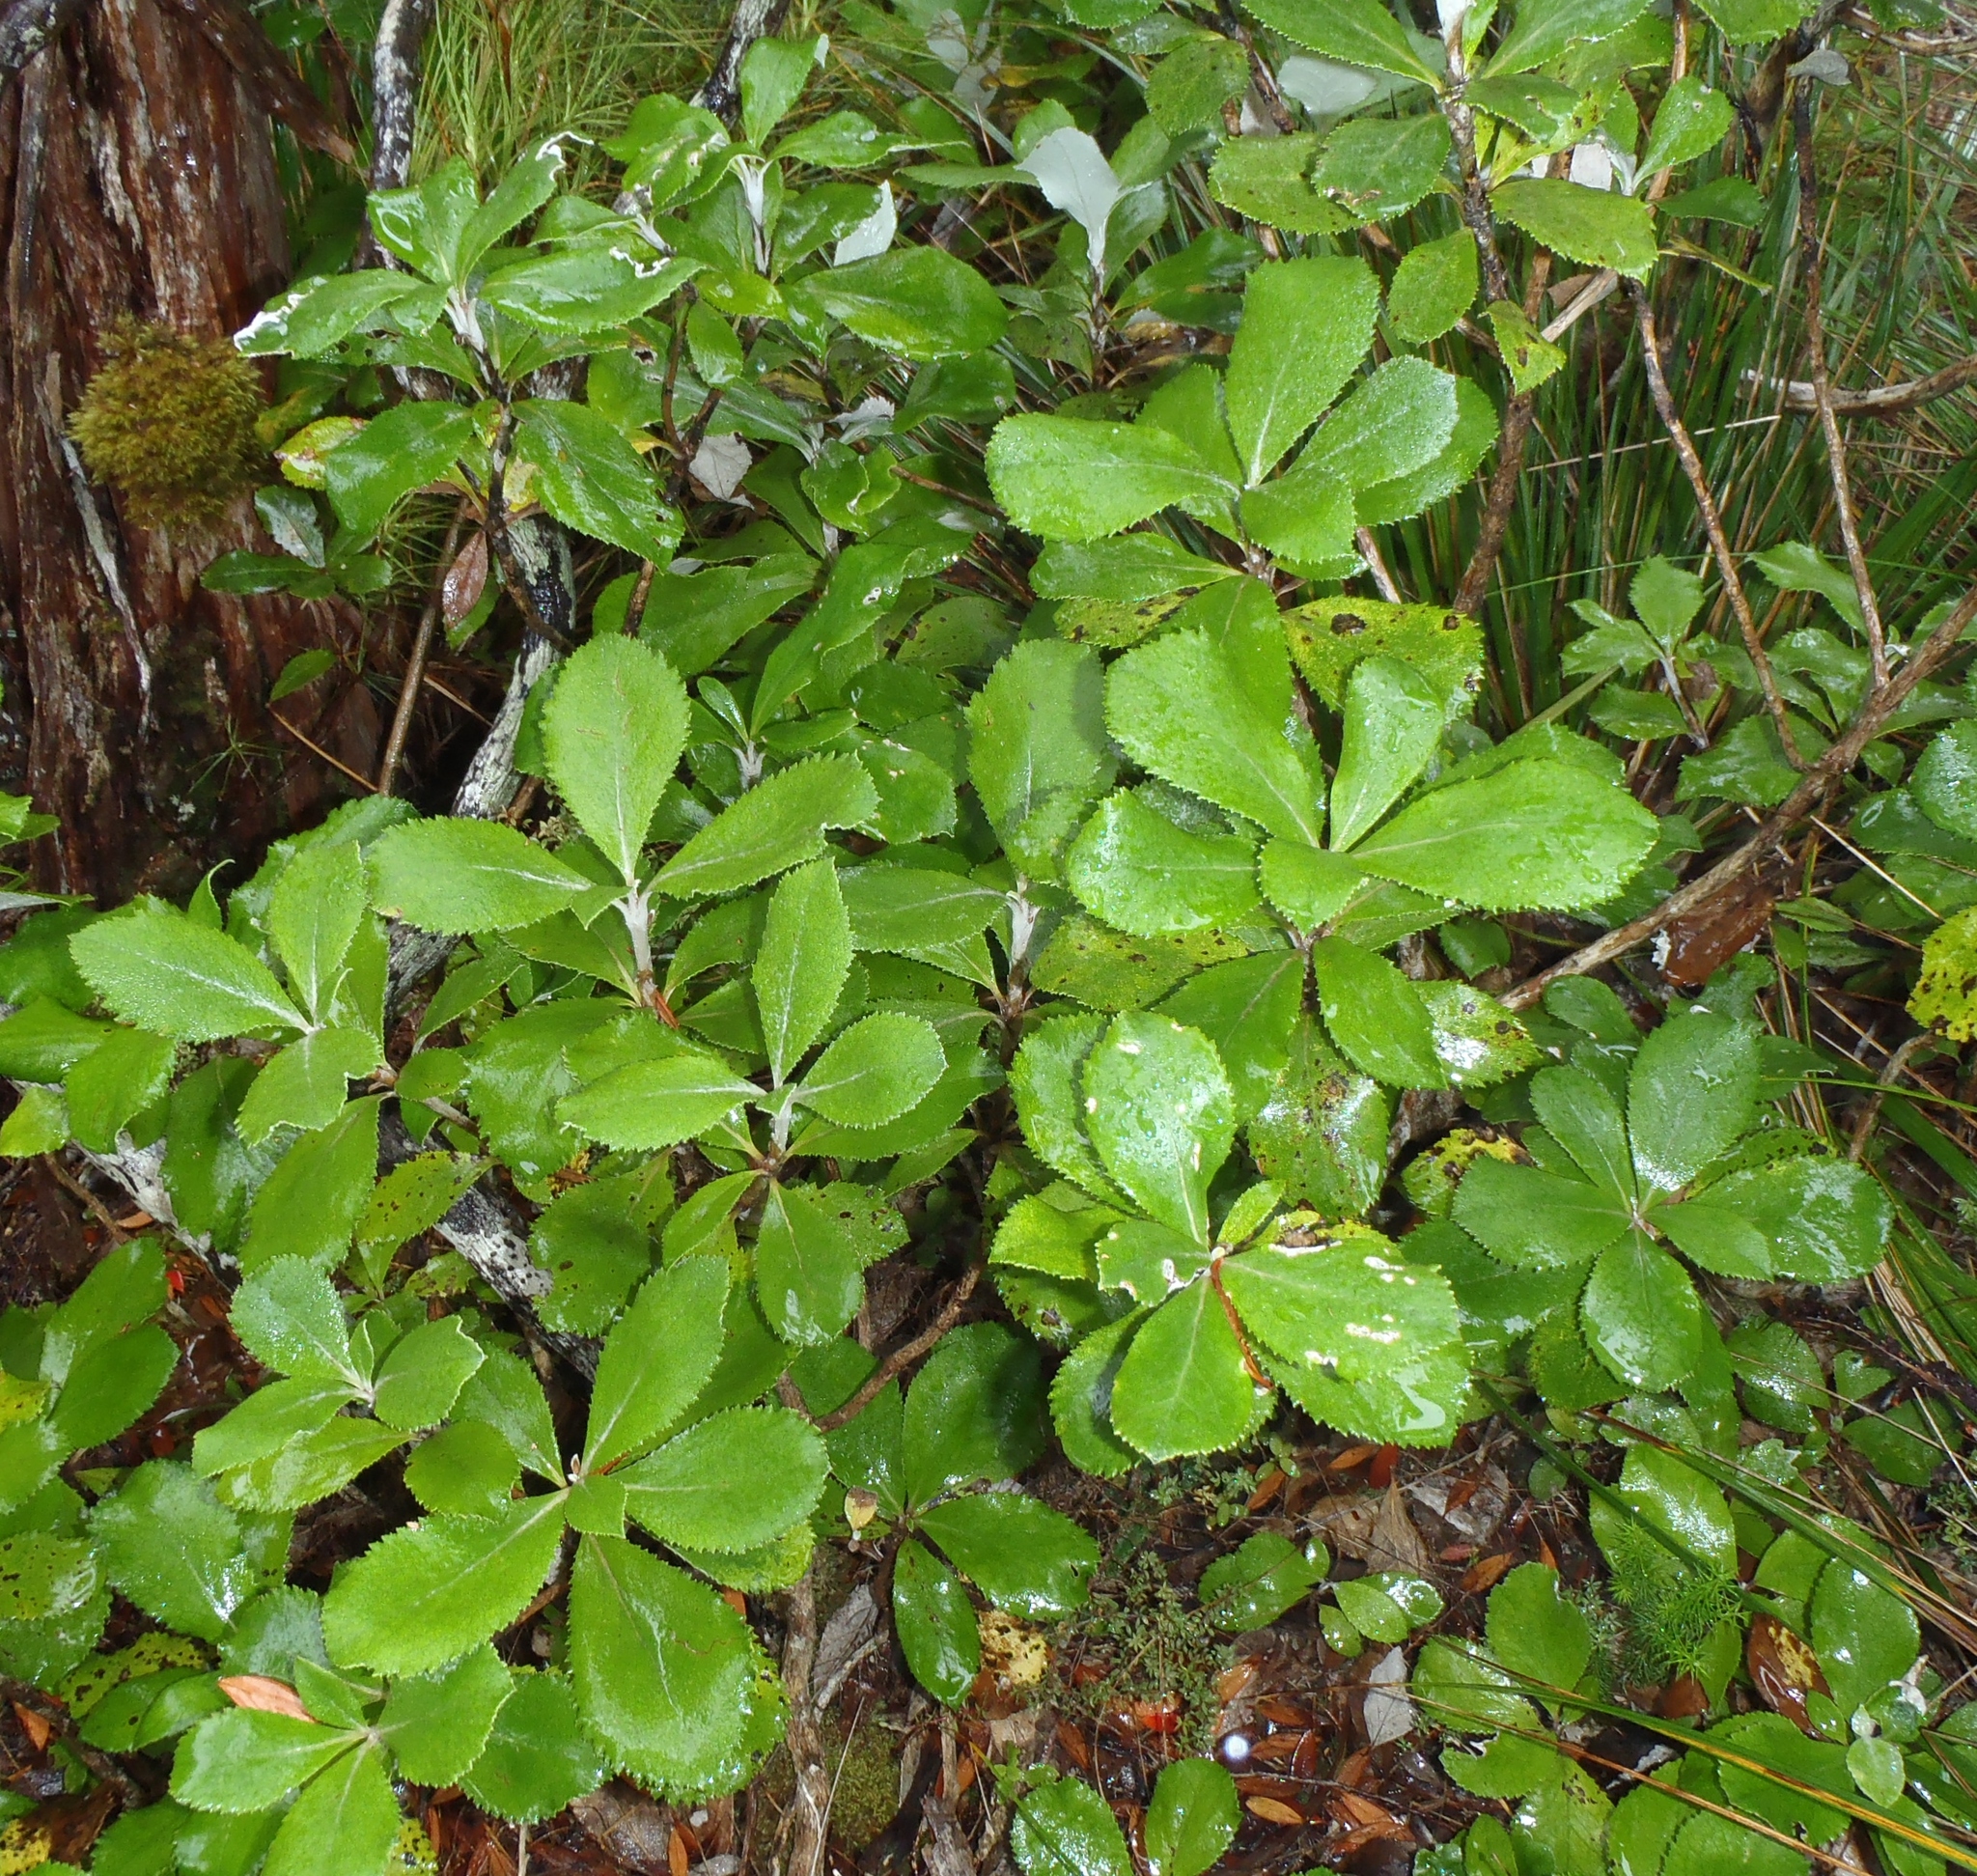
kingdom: Plantae
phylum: Tracheophyta
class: Magnoliopsida
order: Asterales
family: Asteraceae
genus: Macrolearia
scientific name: Macrolearia colensoi
